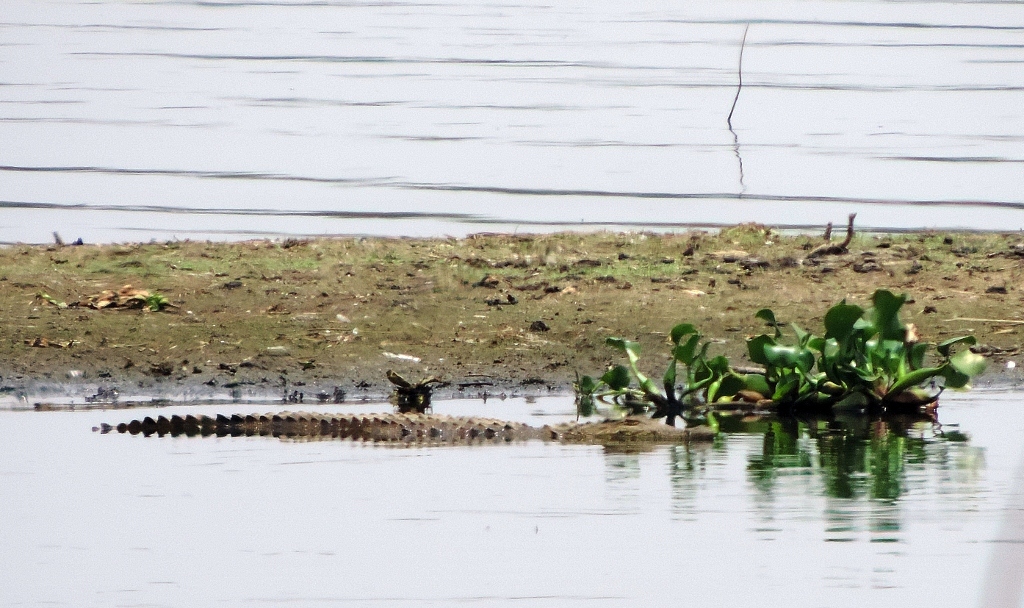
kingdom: Animalia
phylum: Chordata
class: Crocodylia
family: Crocodylidae
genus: Crocodylus
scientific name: Crocodylus niloticus
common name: Nile crocodile
